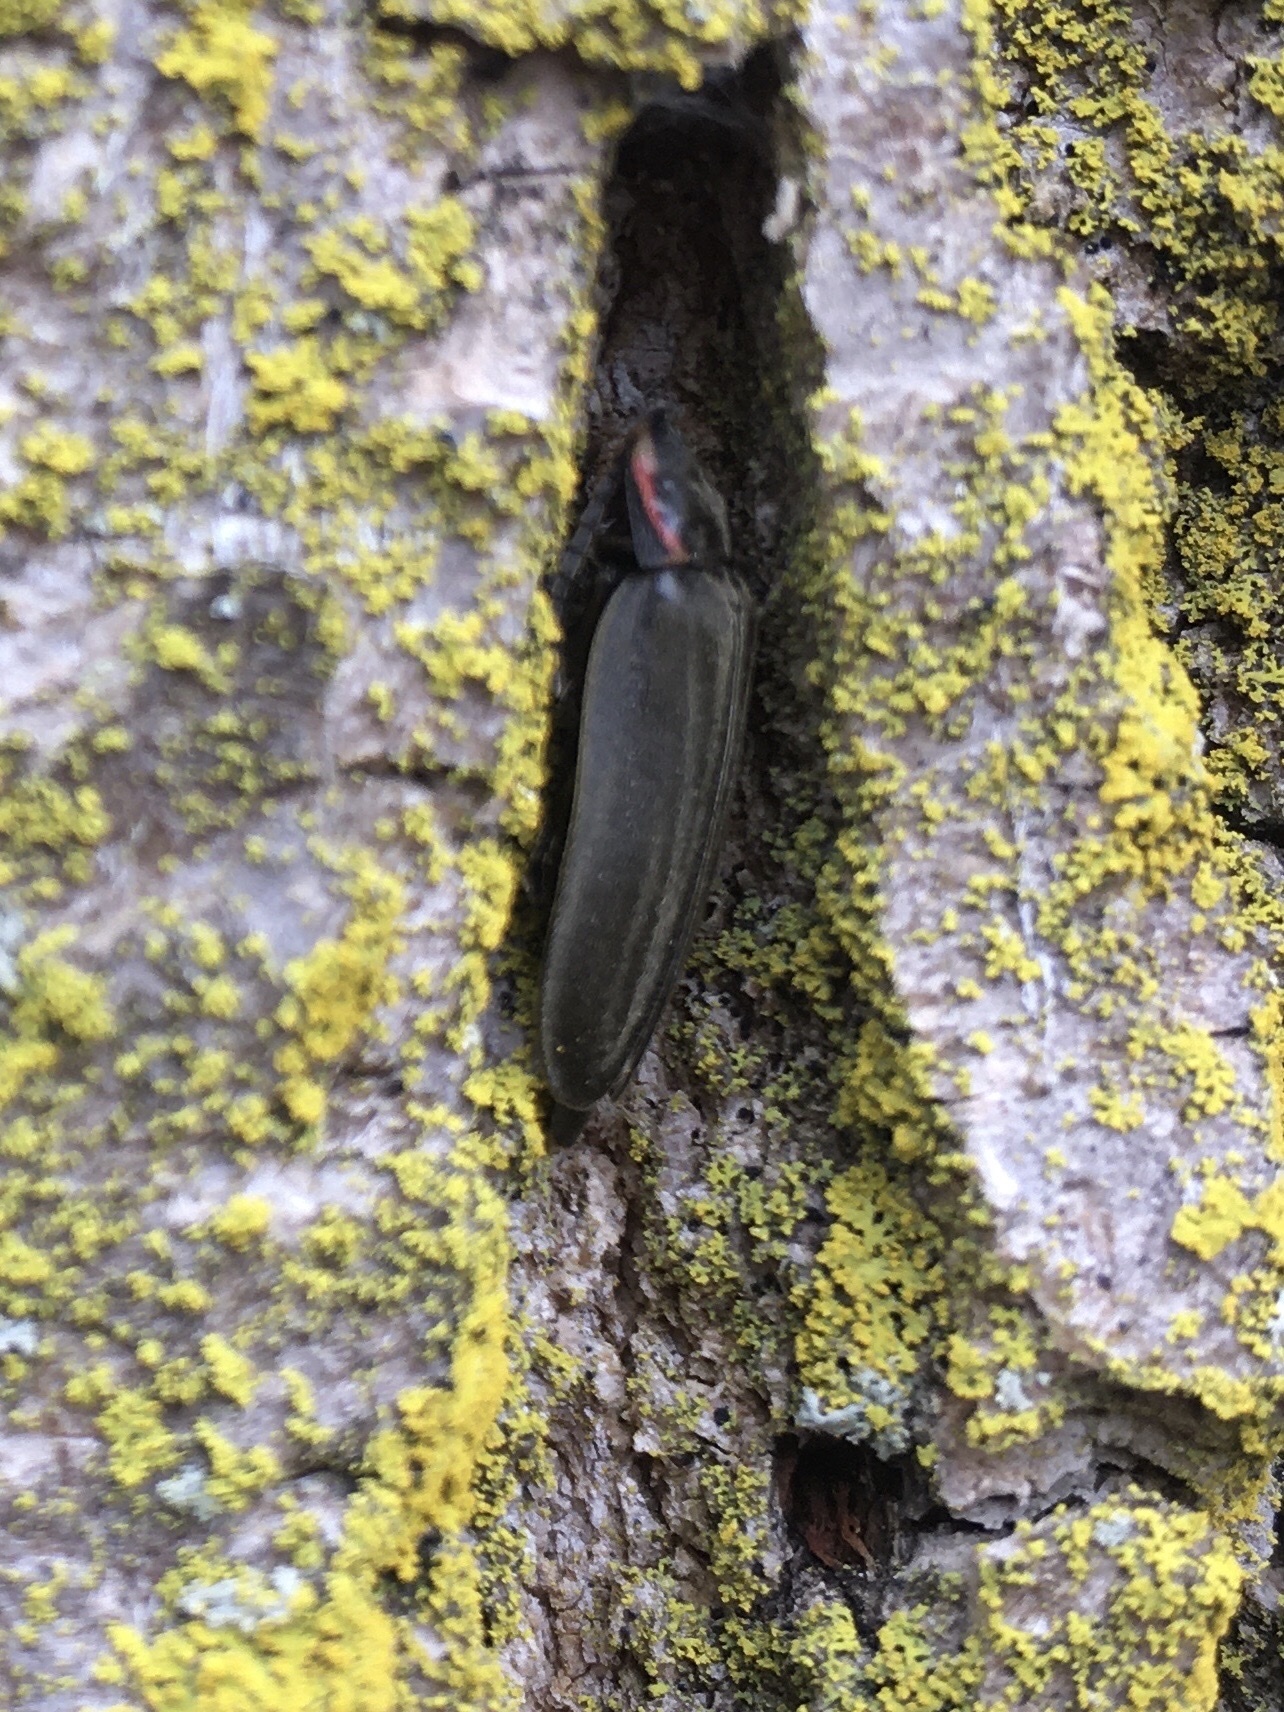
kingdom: Animalia
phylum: Arthropoda
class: Insecta
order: Coleoptera
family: Lampyridae
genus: Photinus
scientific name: Photinus corrusca
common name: Winter firefly
